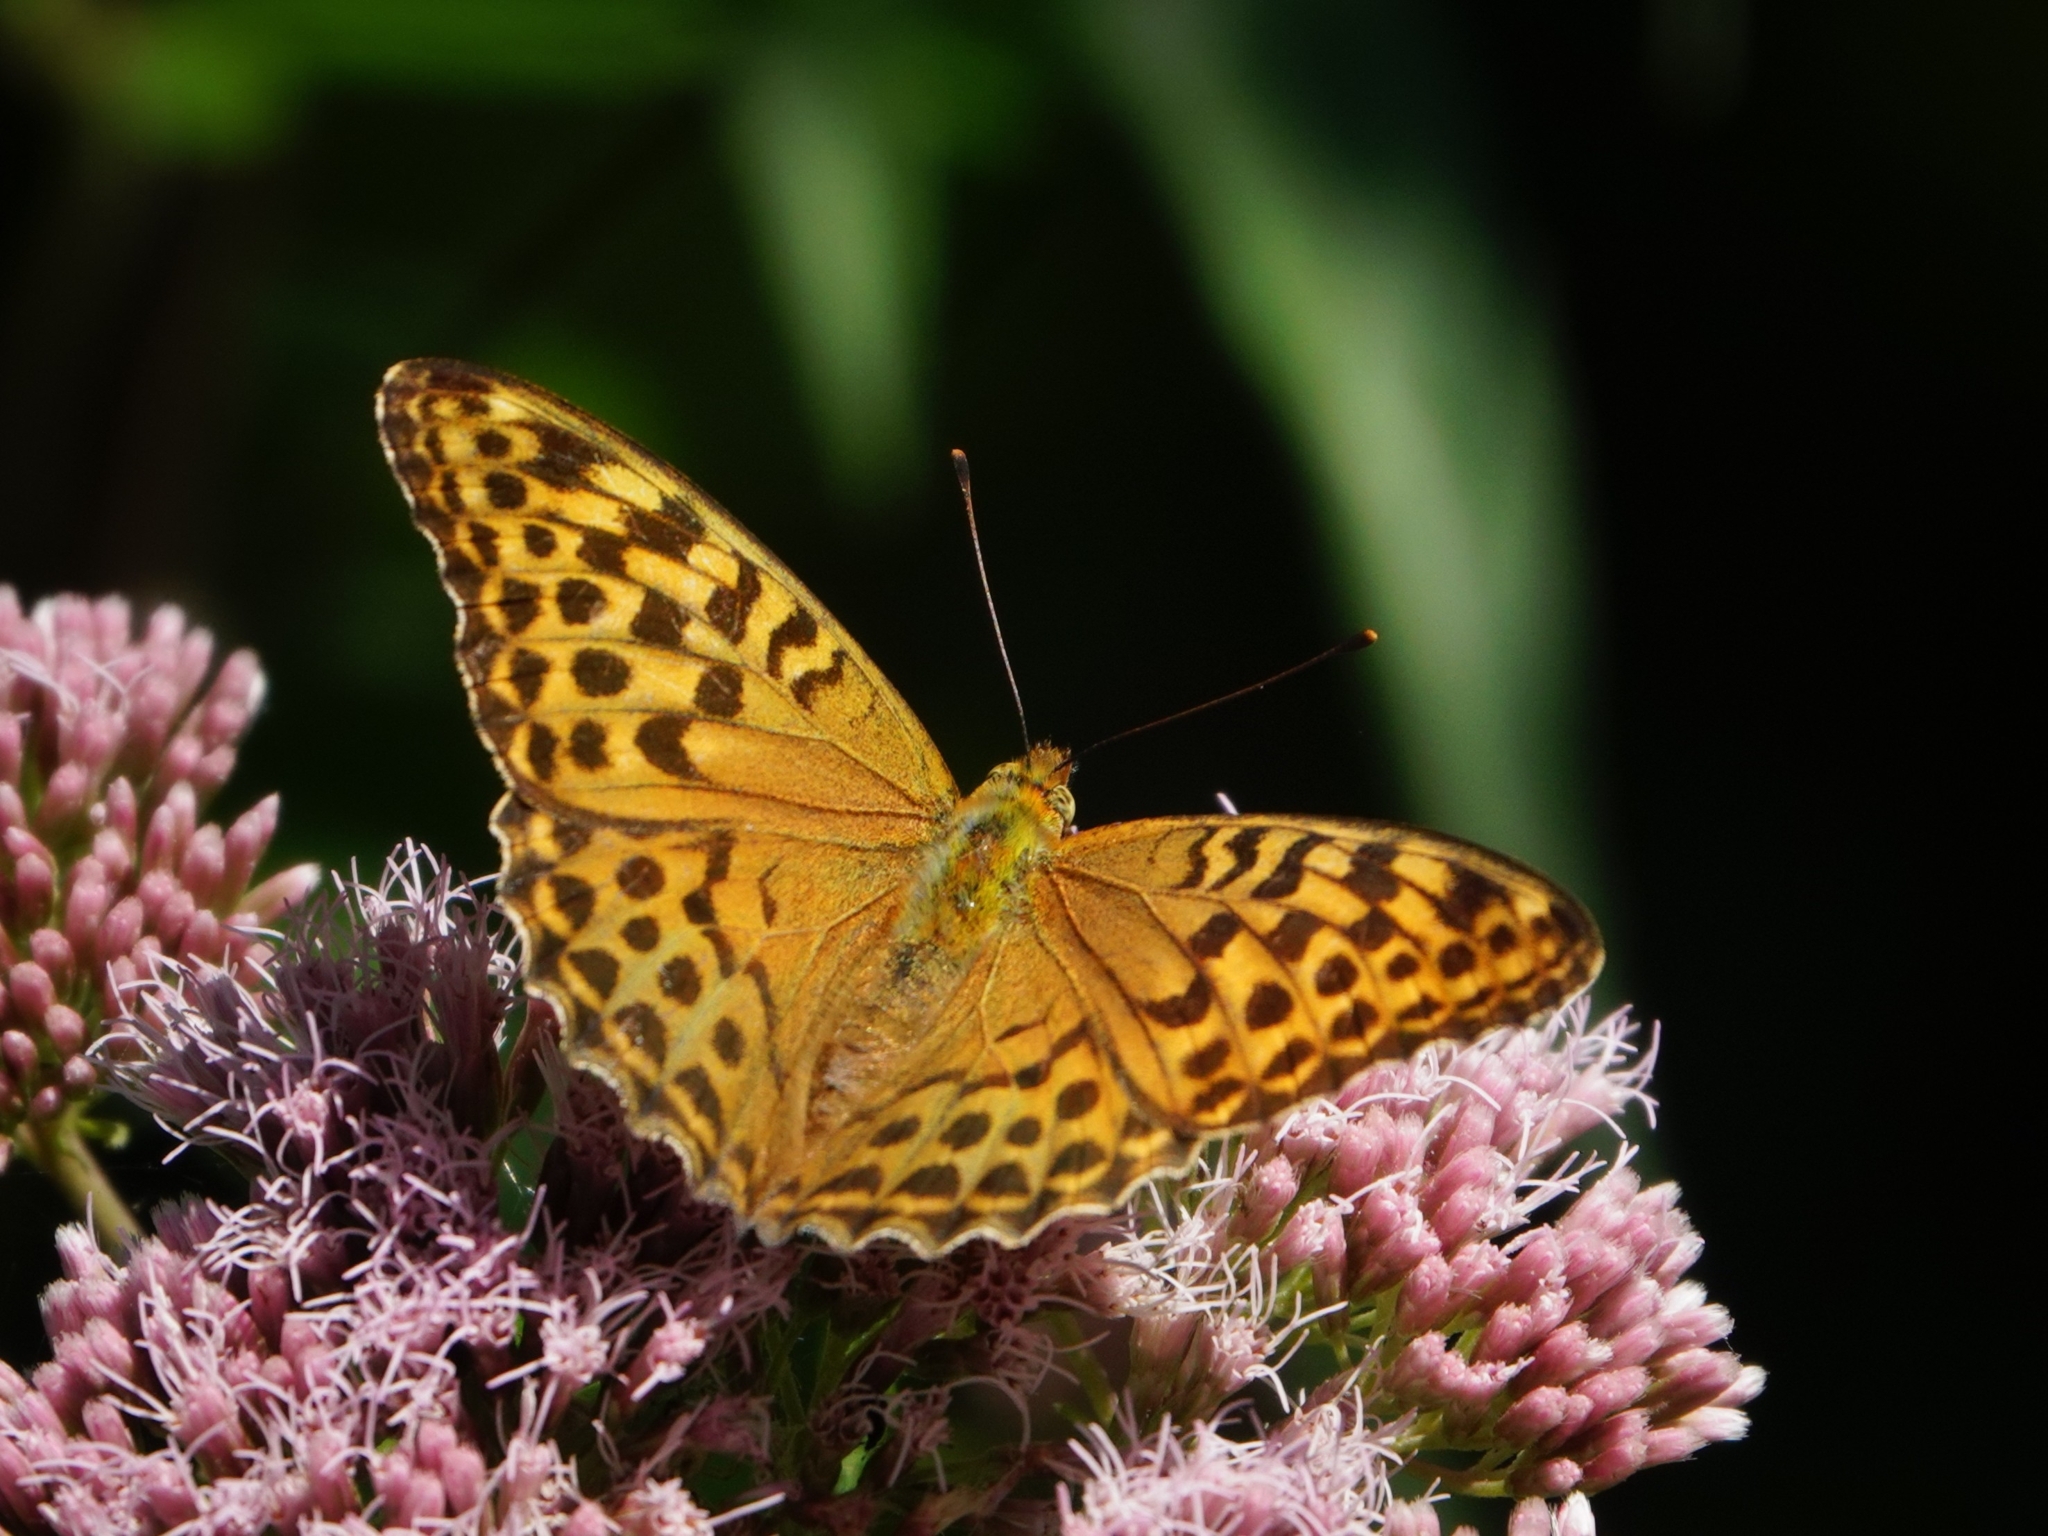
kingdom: Animalia
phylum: Arthropoda
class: Insecta
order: Lepidoptera
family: Nymphalidae
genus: Argynnis
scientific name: Argynnis paphia
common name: Silver-washed fritillary
